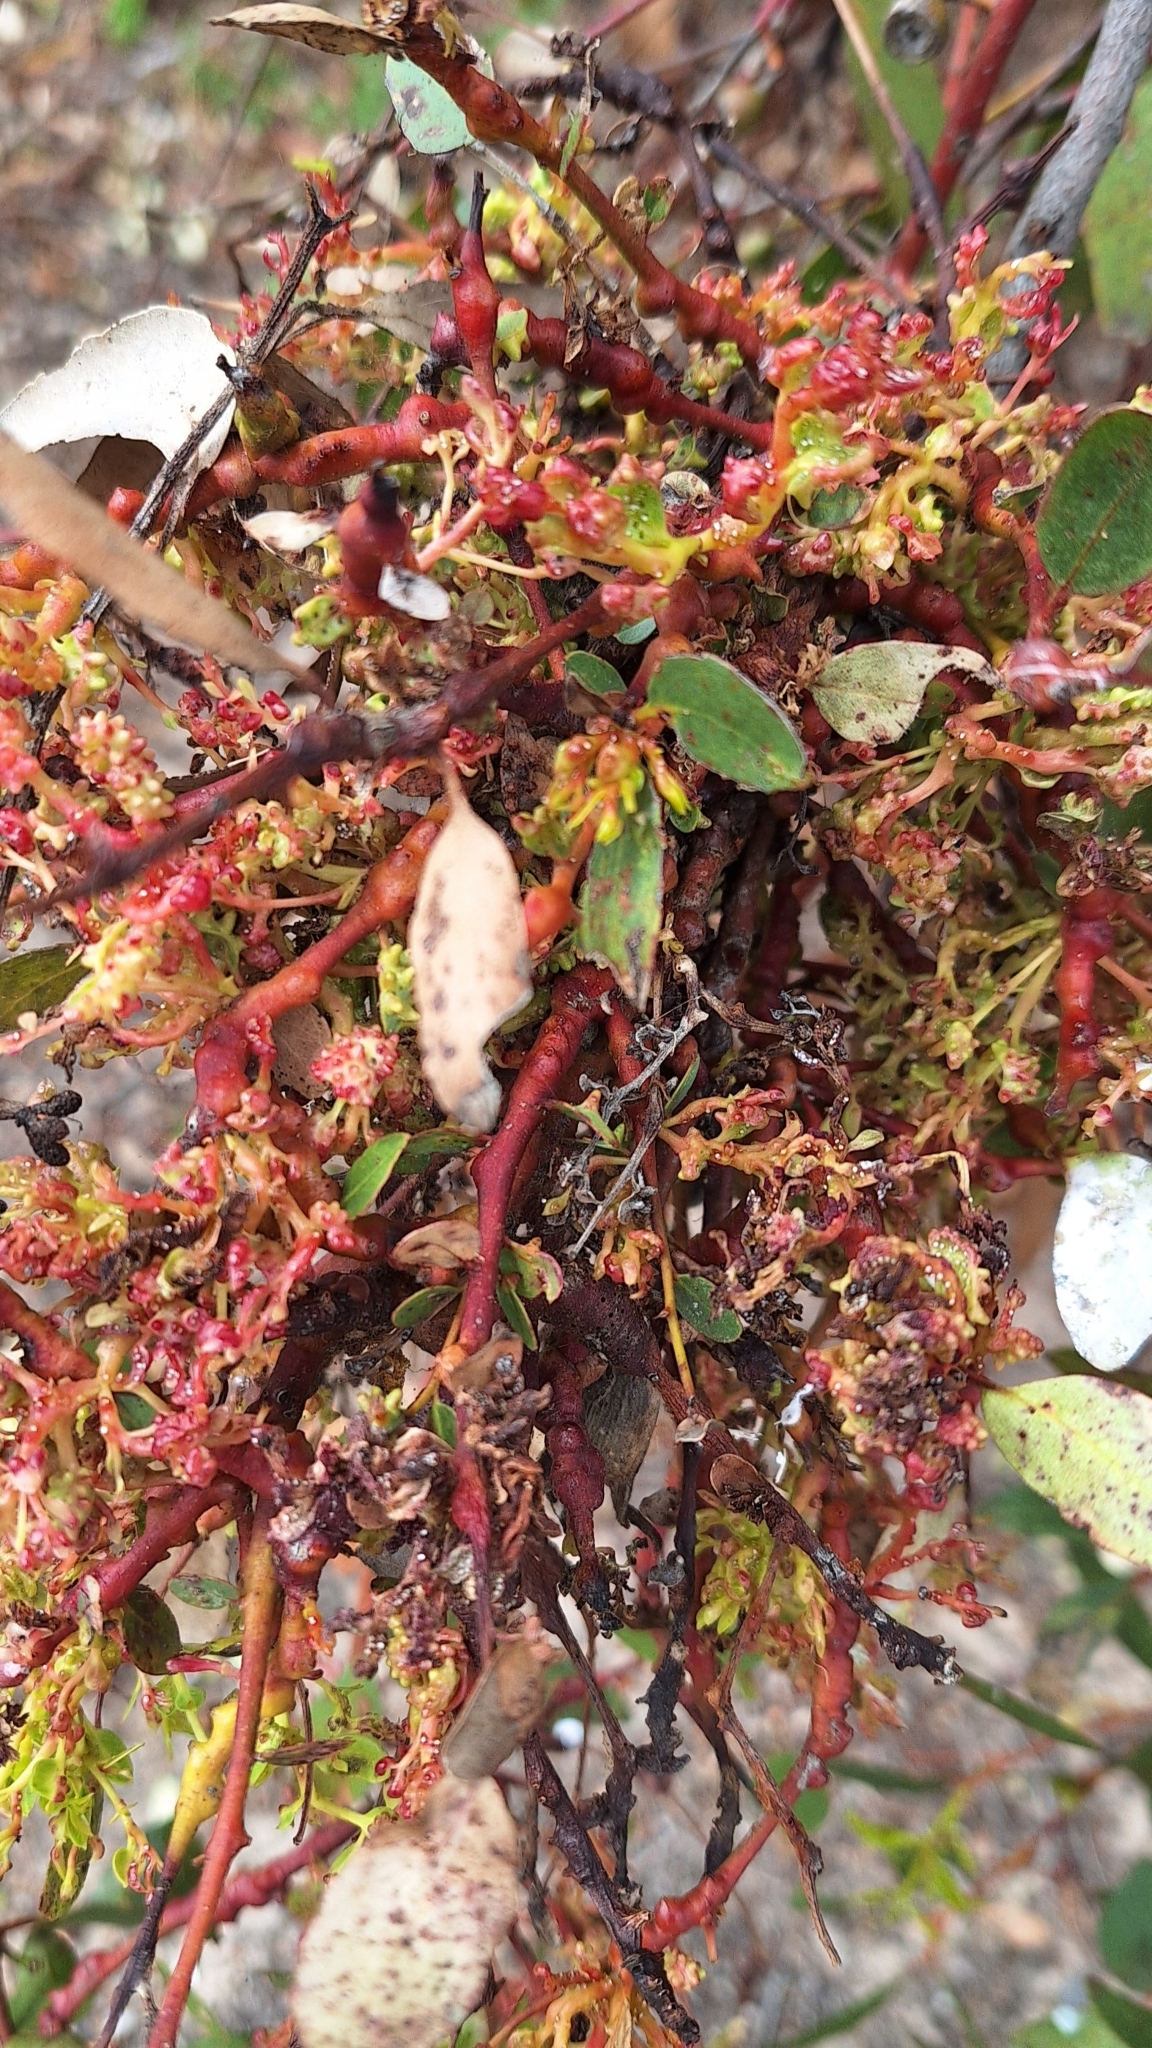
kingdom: Animalia
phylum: Arthropoda
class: Insecta
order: Hemiptera
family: Diaspididae
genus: Maskellia
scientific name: Maskellia globosa
